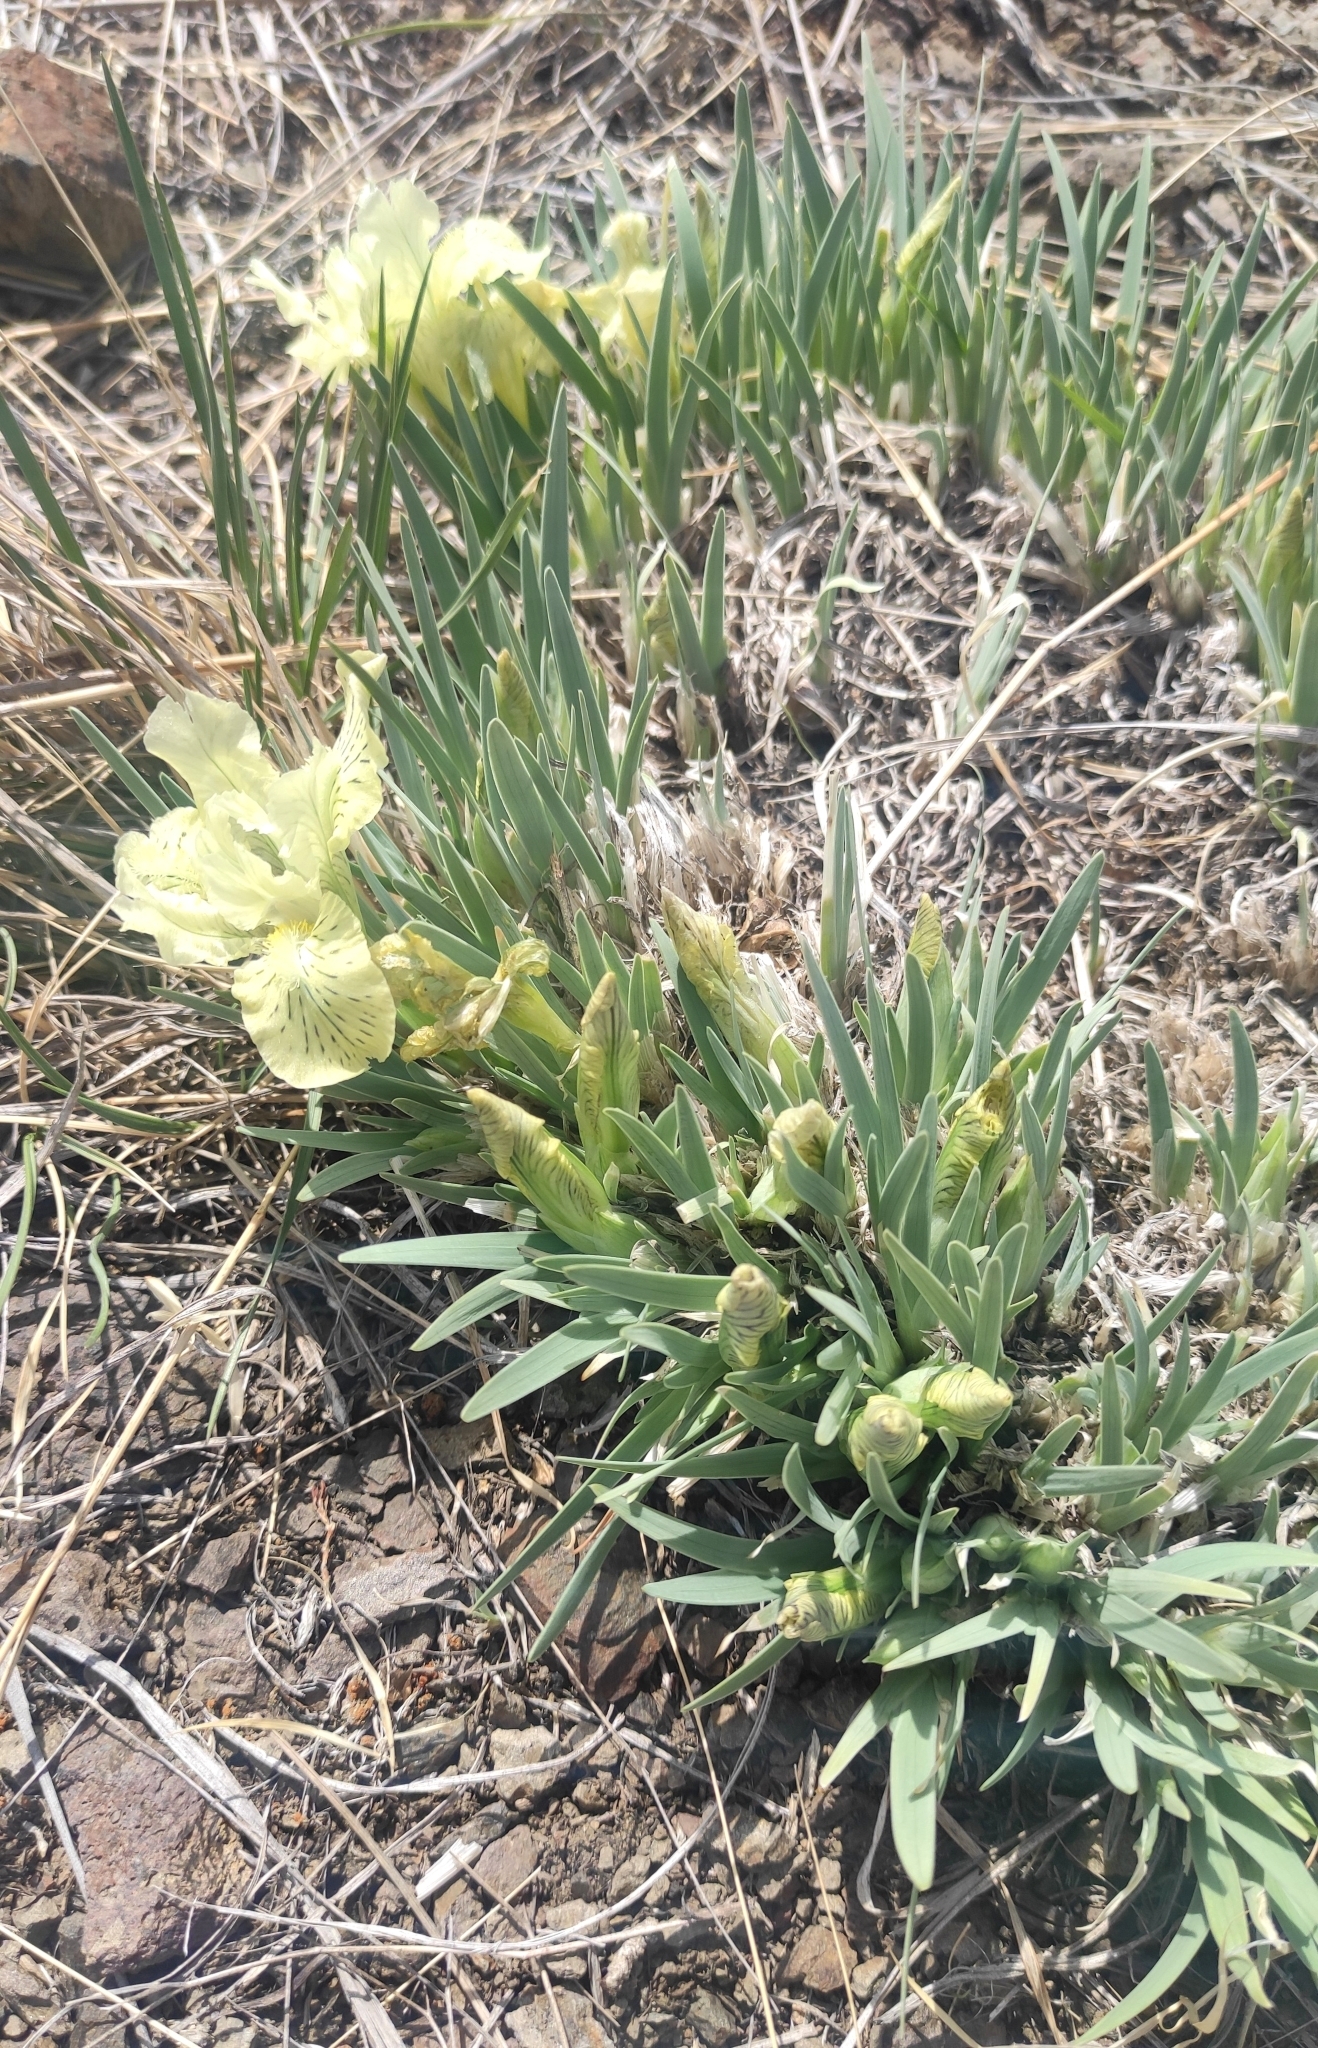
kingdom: Plantae
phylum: Tracheophyta
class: Liliopsida
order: Asparagales
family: Iridaceae
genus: Iris
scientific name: Iris potaninii
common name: Curl-sheath iris
